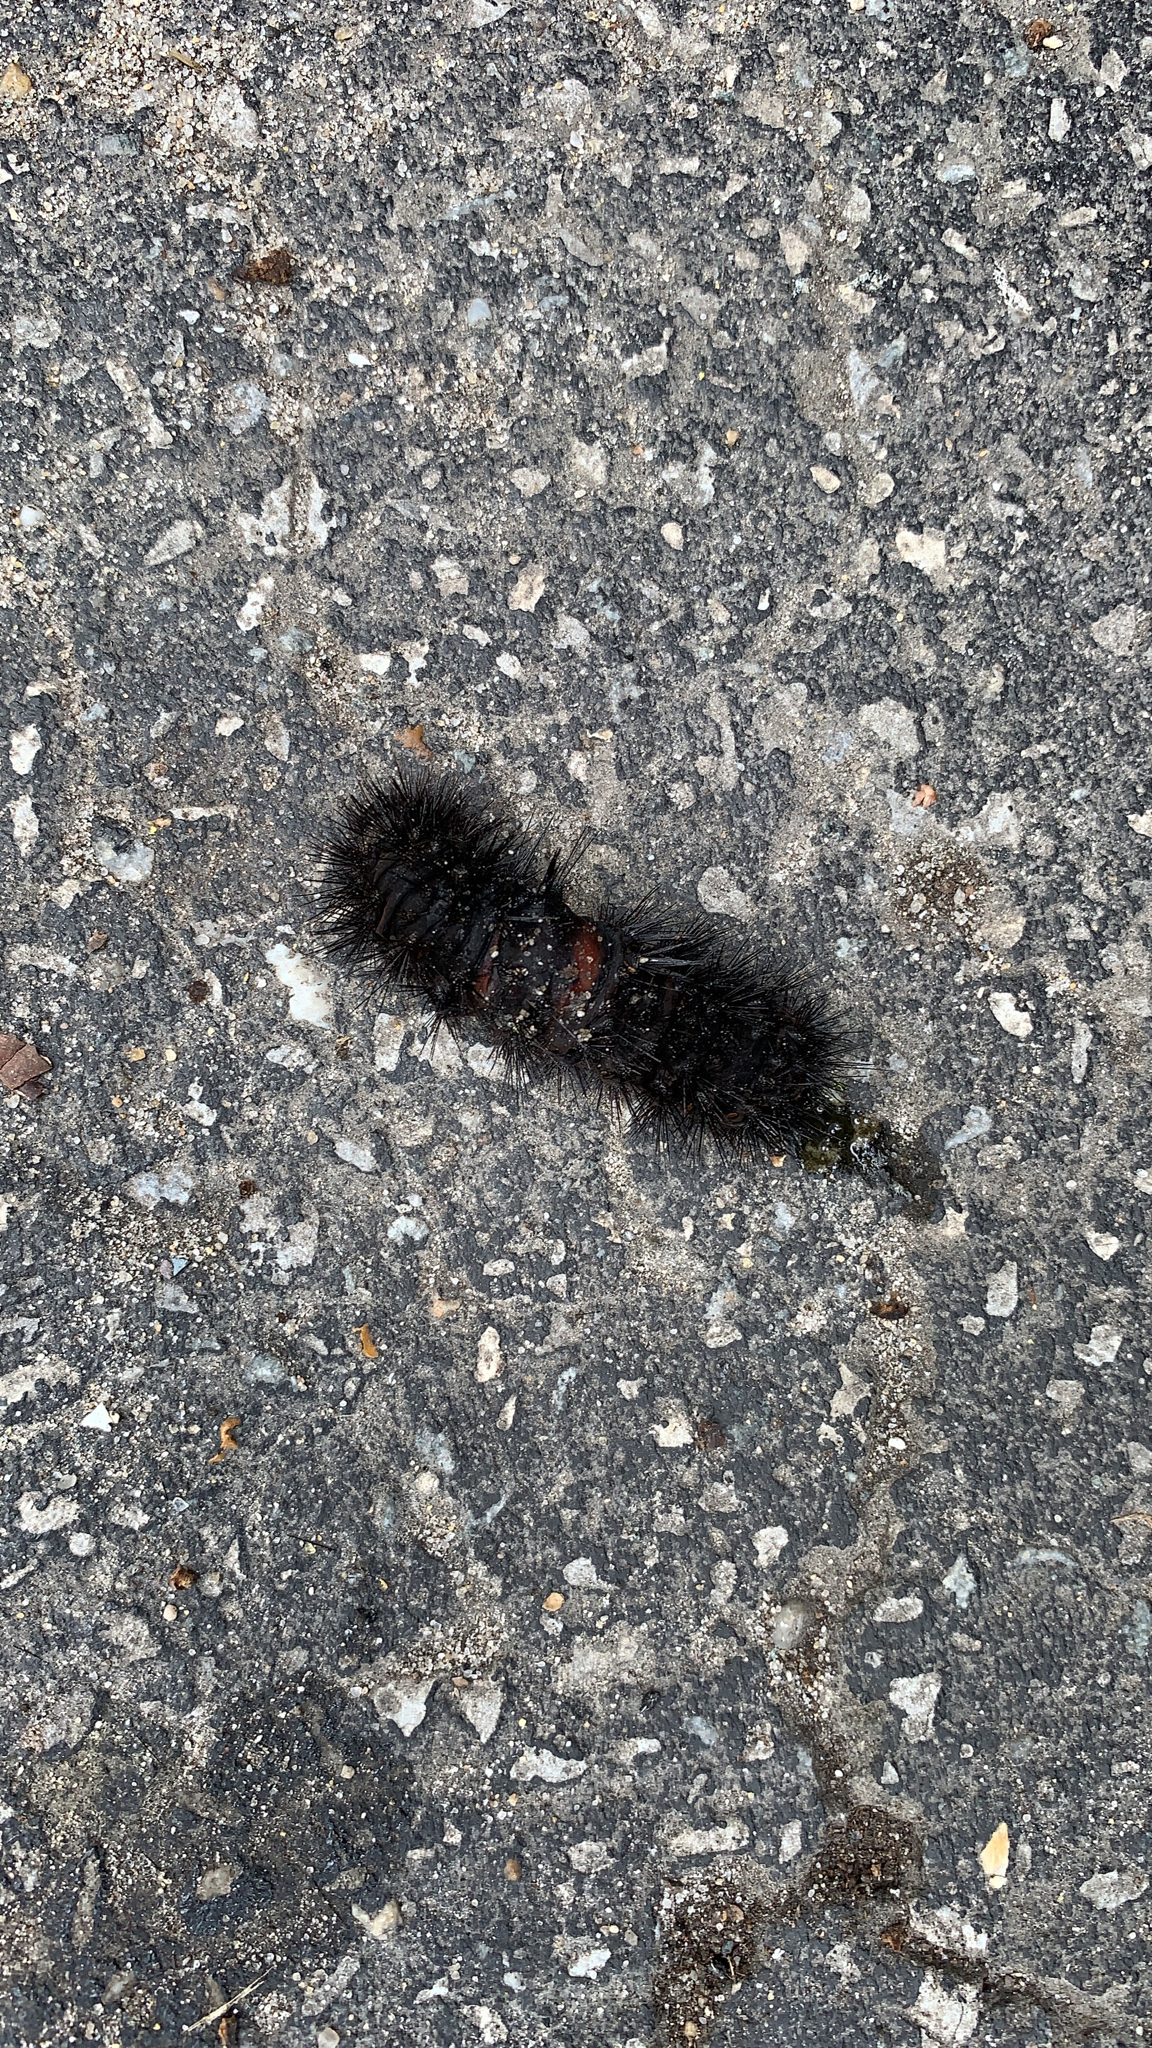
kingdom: Animalia
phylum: Arthropoda
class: Insecta
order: Lepidoptera
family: Erebidae
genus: Hypercompe
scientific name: Hypercompe scribonia
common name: Giant leopard moth
